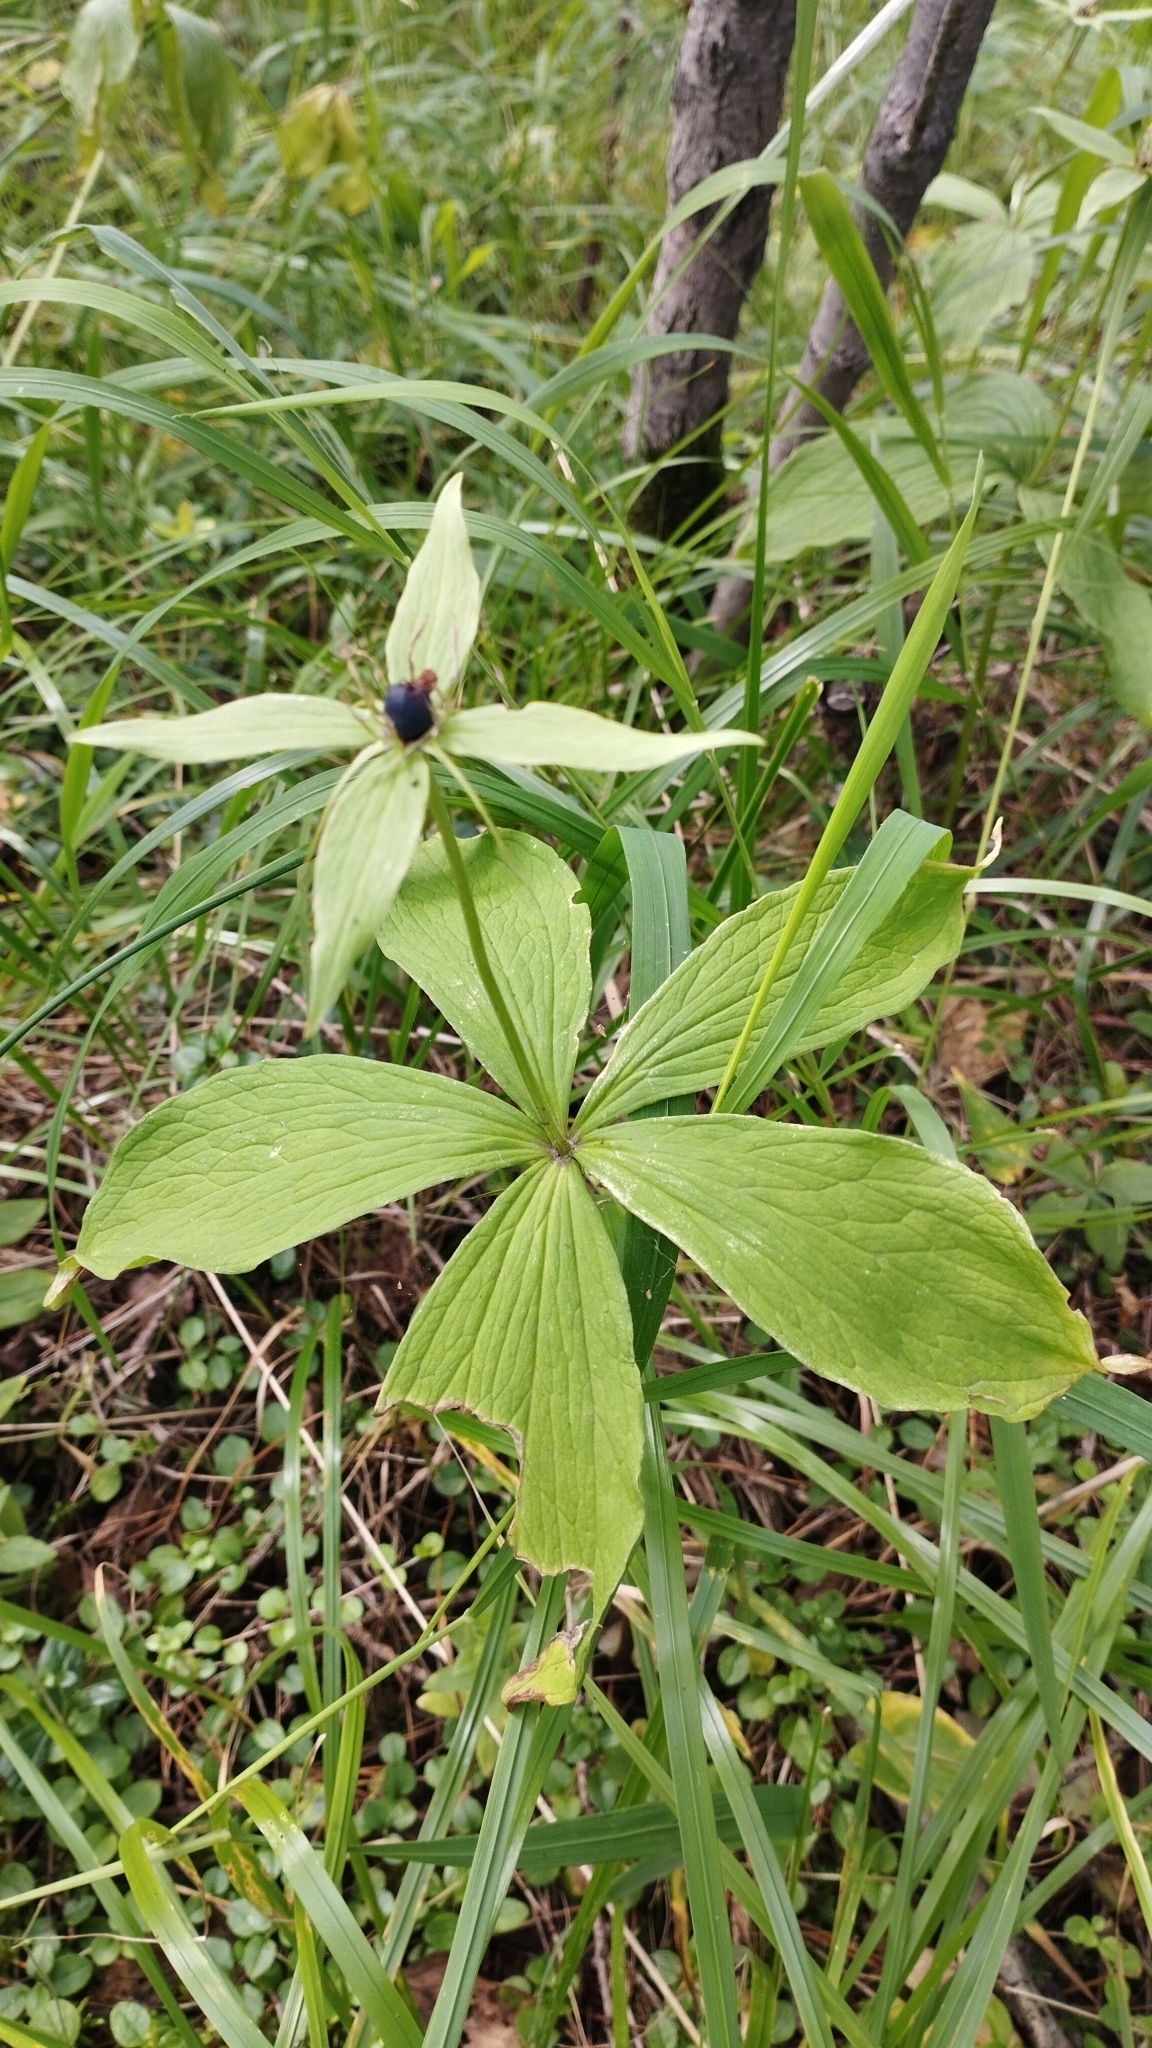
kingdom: Plantae
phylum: Tracheophyta
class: Liliopsida
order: Liliales
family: Melanthiaceae
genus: Paris
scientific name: Paris verticillata
